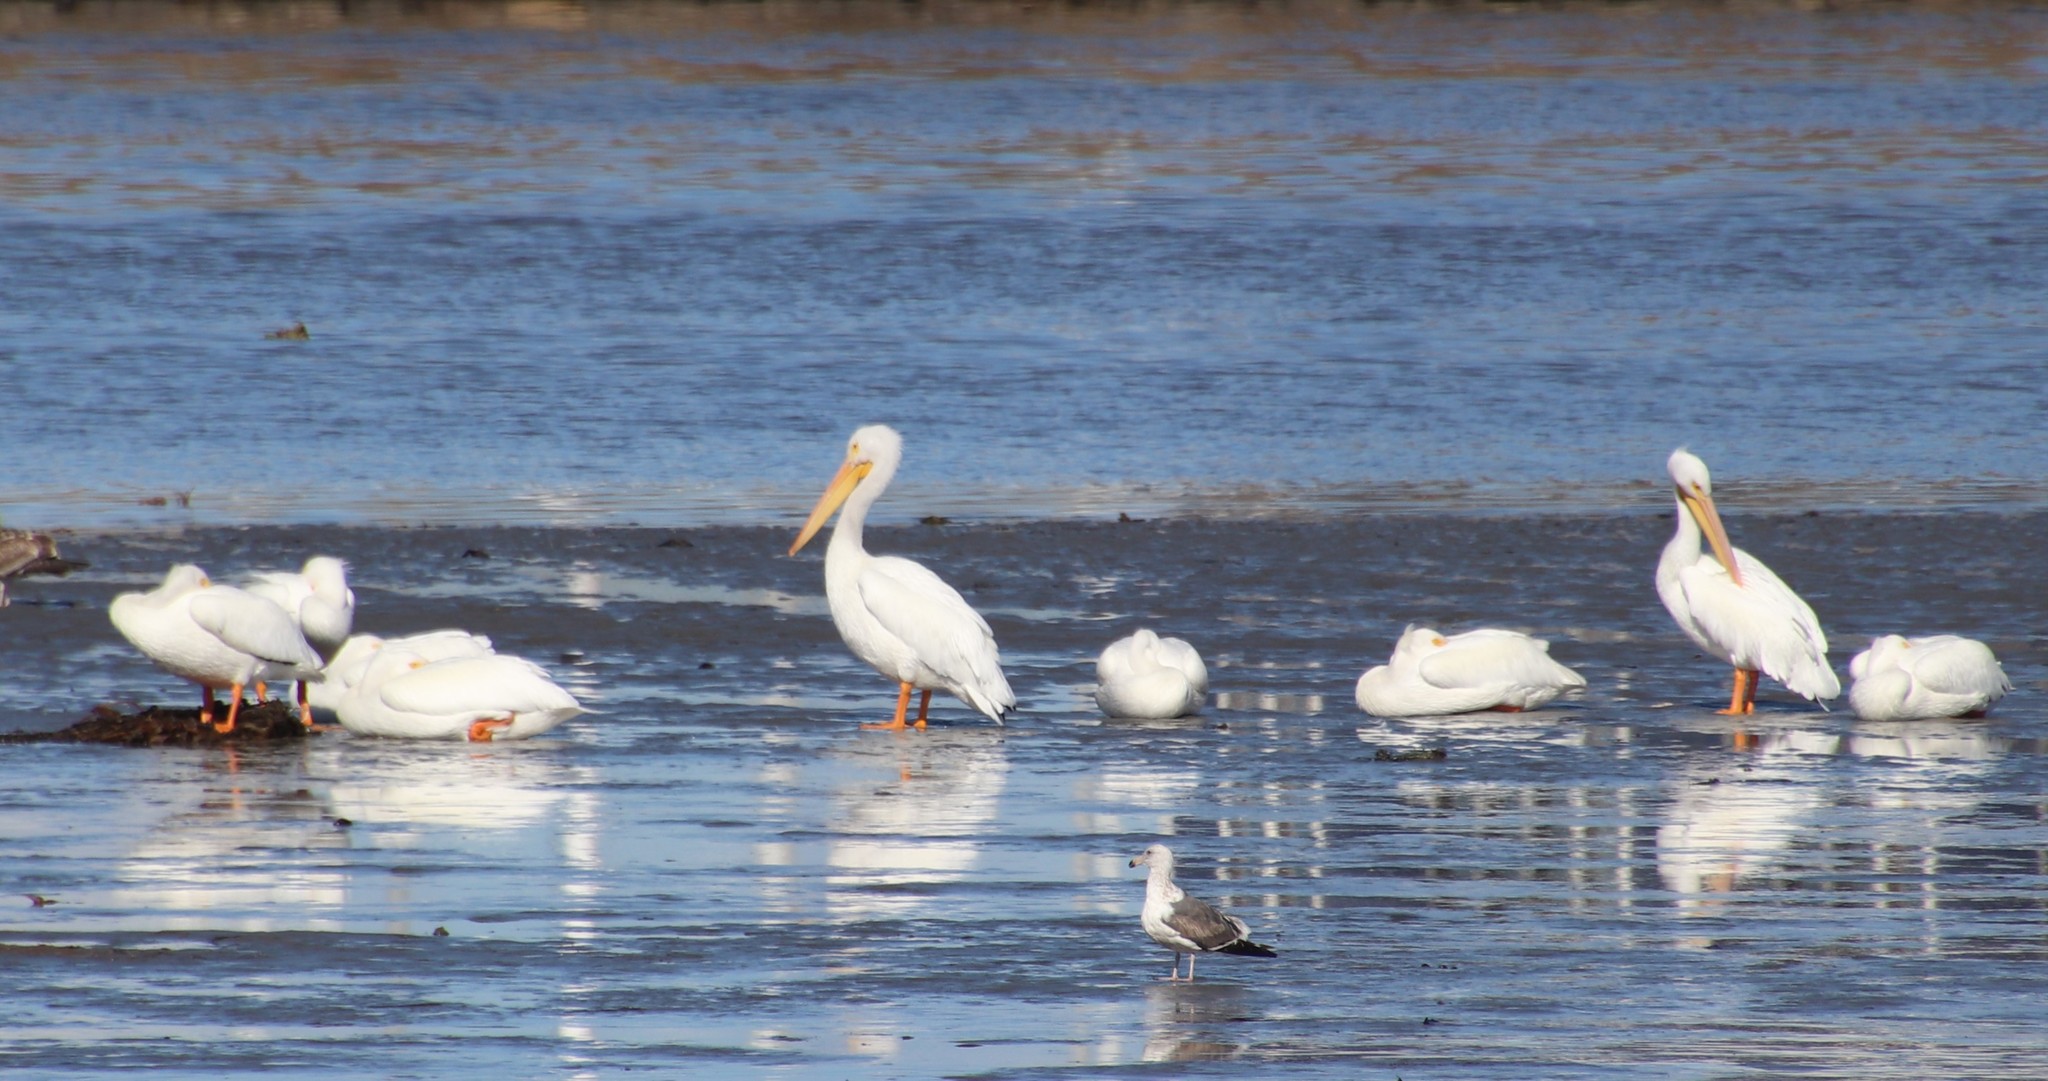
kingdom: Animalia
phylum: Chordata
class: Aves
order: Pelecaniformes
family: Pelecanidae
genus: Pelecanus
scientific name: Pelecanus erythrorhynchos
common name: American white pelican
